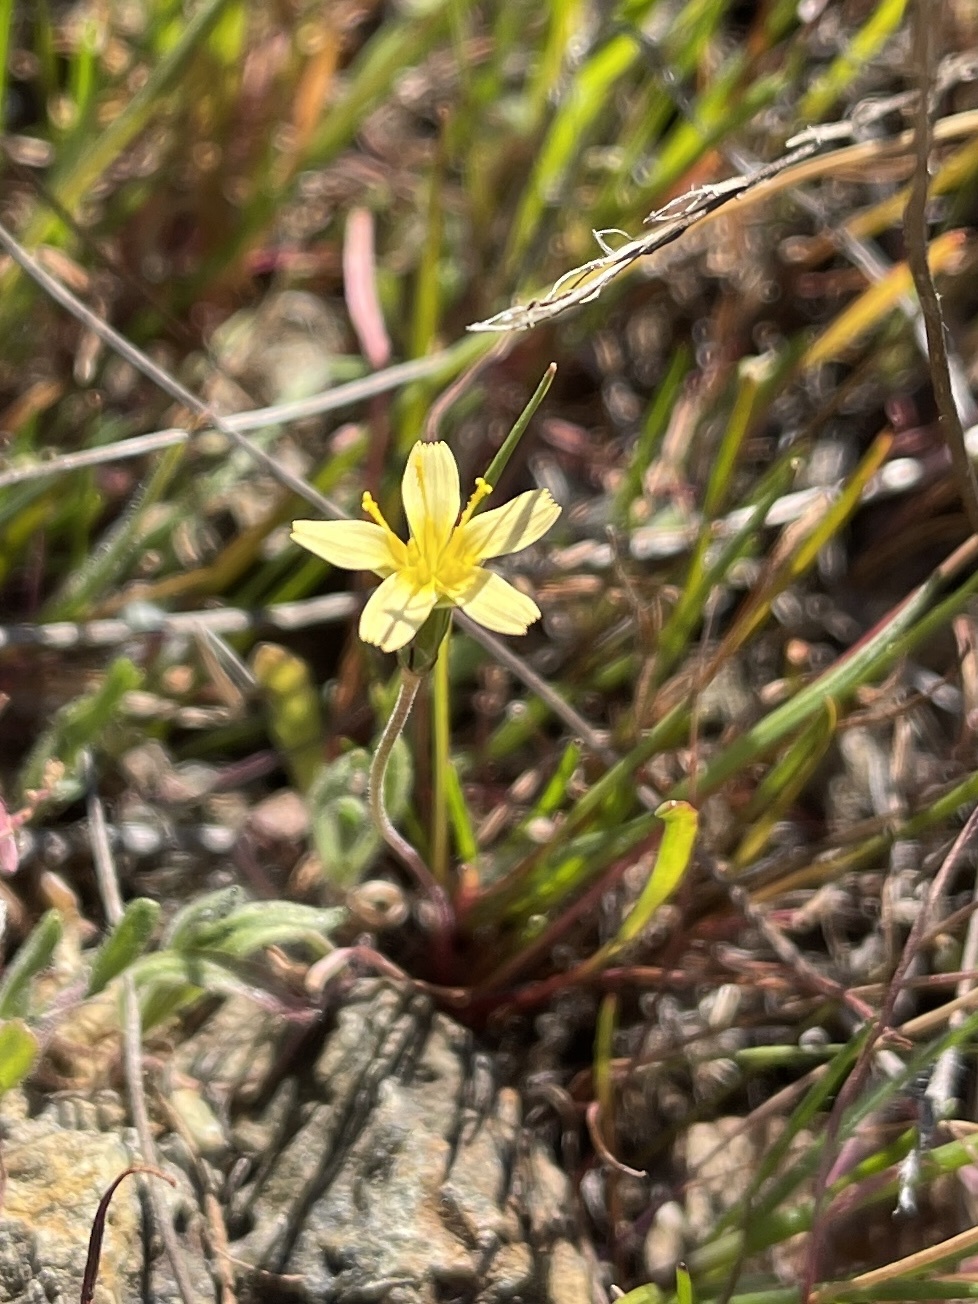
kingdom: Plantae
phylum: Tracheophyta
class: Magnoliopsida
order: Asterales
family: Asteraceae
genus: Microseris
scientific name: Microseris douglasii
